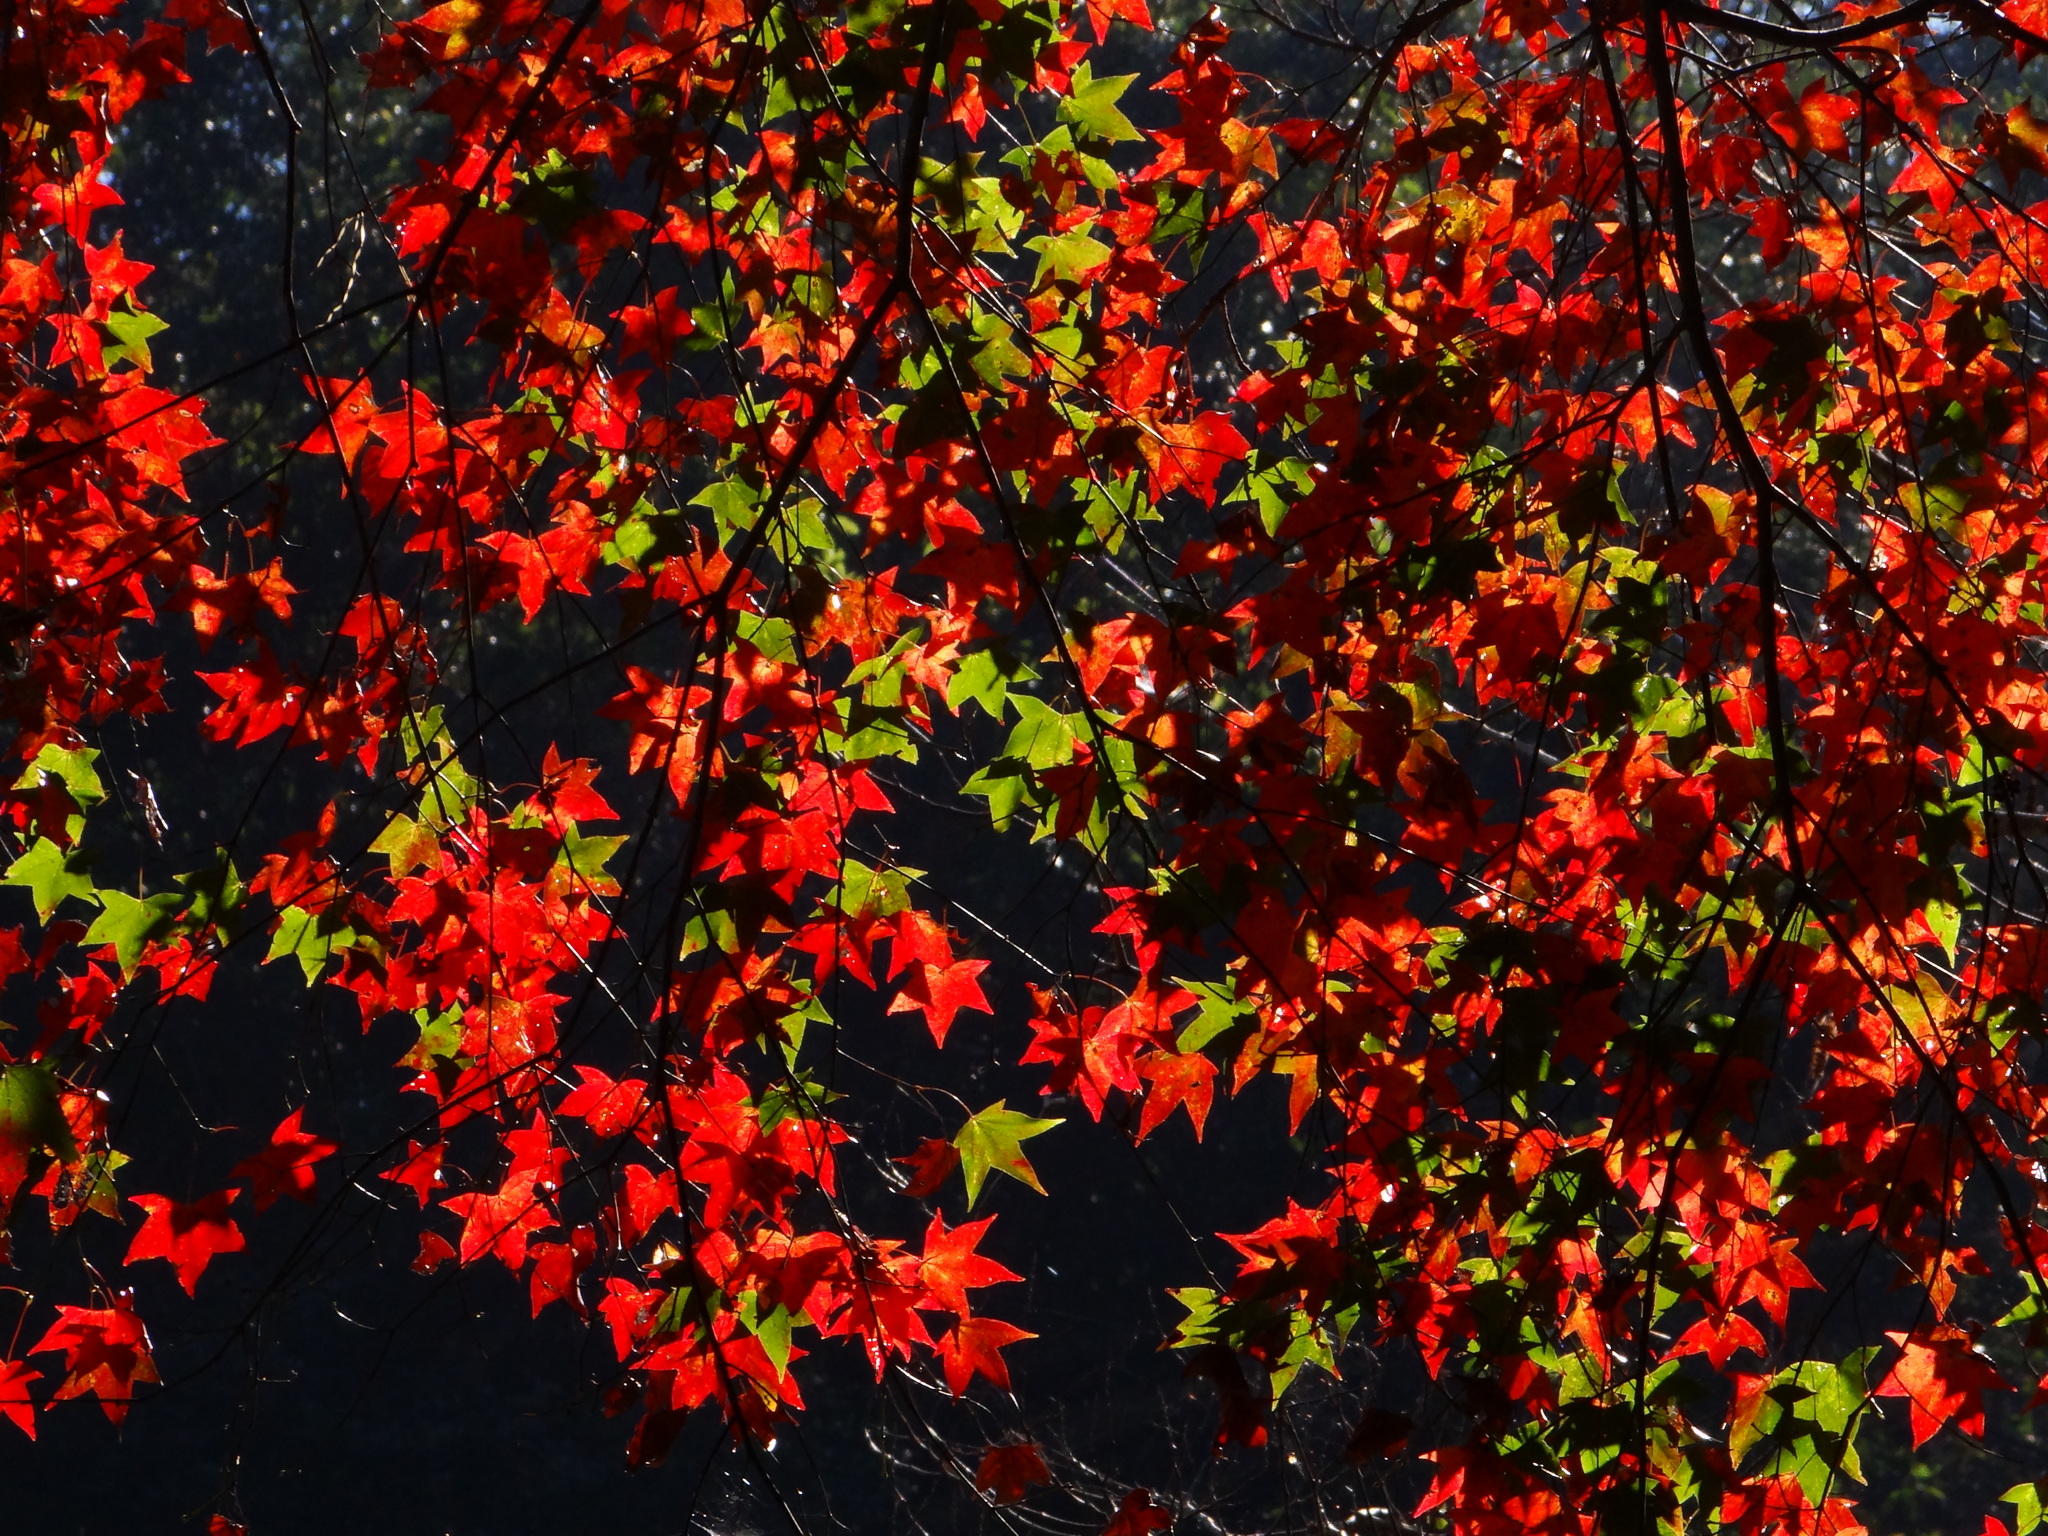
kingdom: Plantae
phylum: Tracheophyta
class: Magnoliopsida
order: Sapindales
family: Sapindaceae
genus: Acer
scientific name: Acer serrulatum
